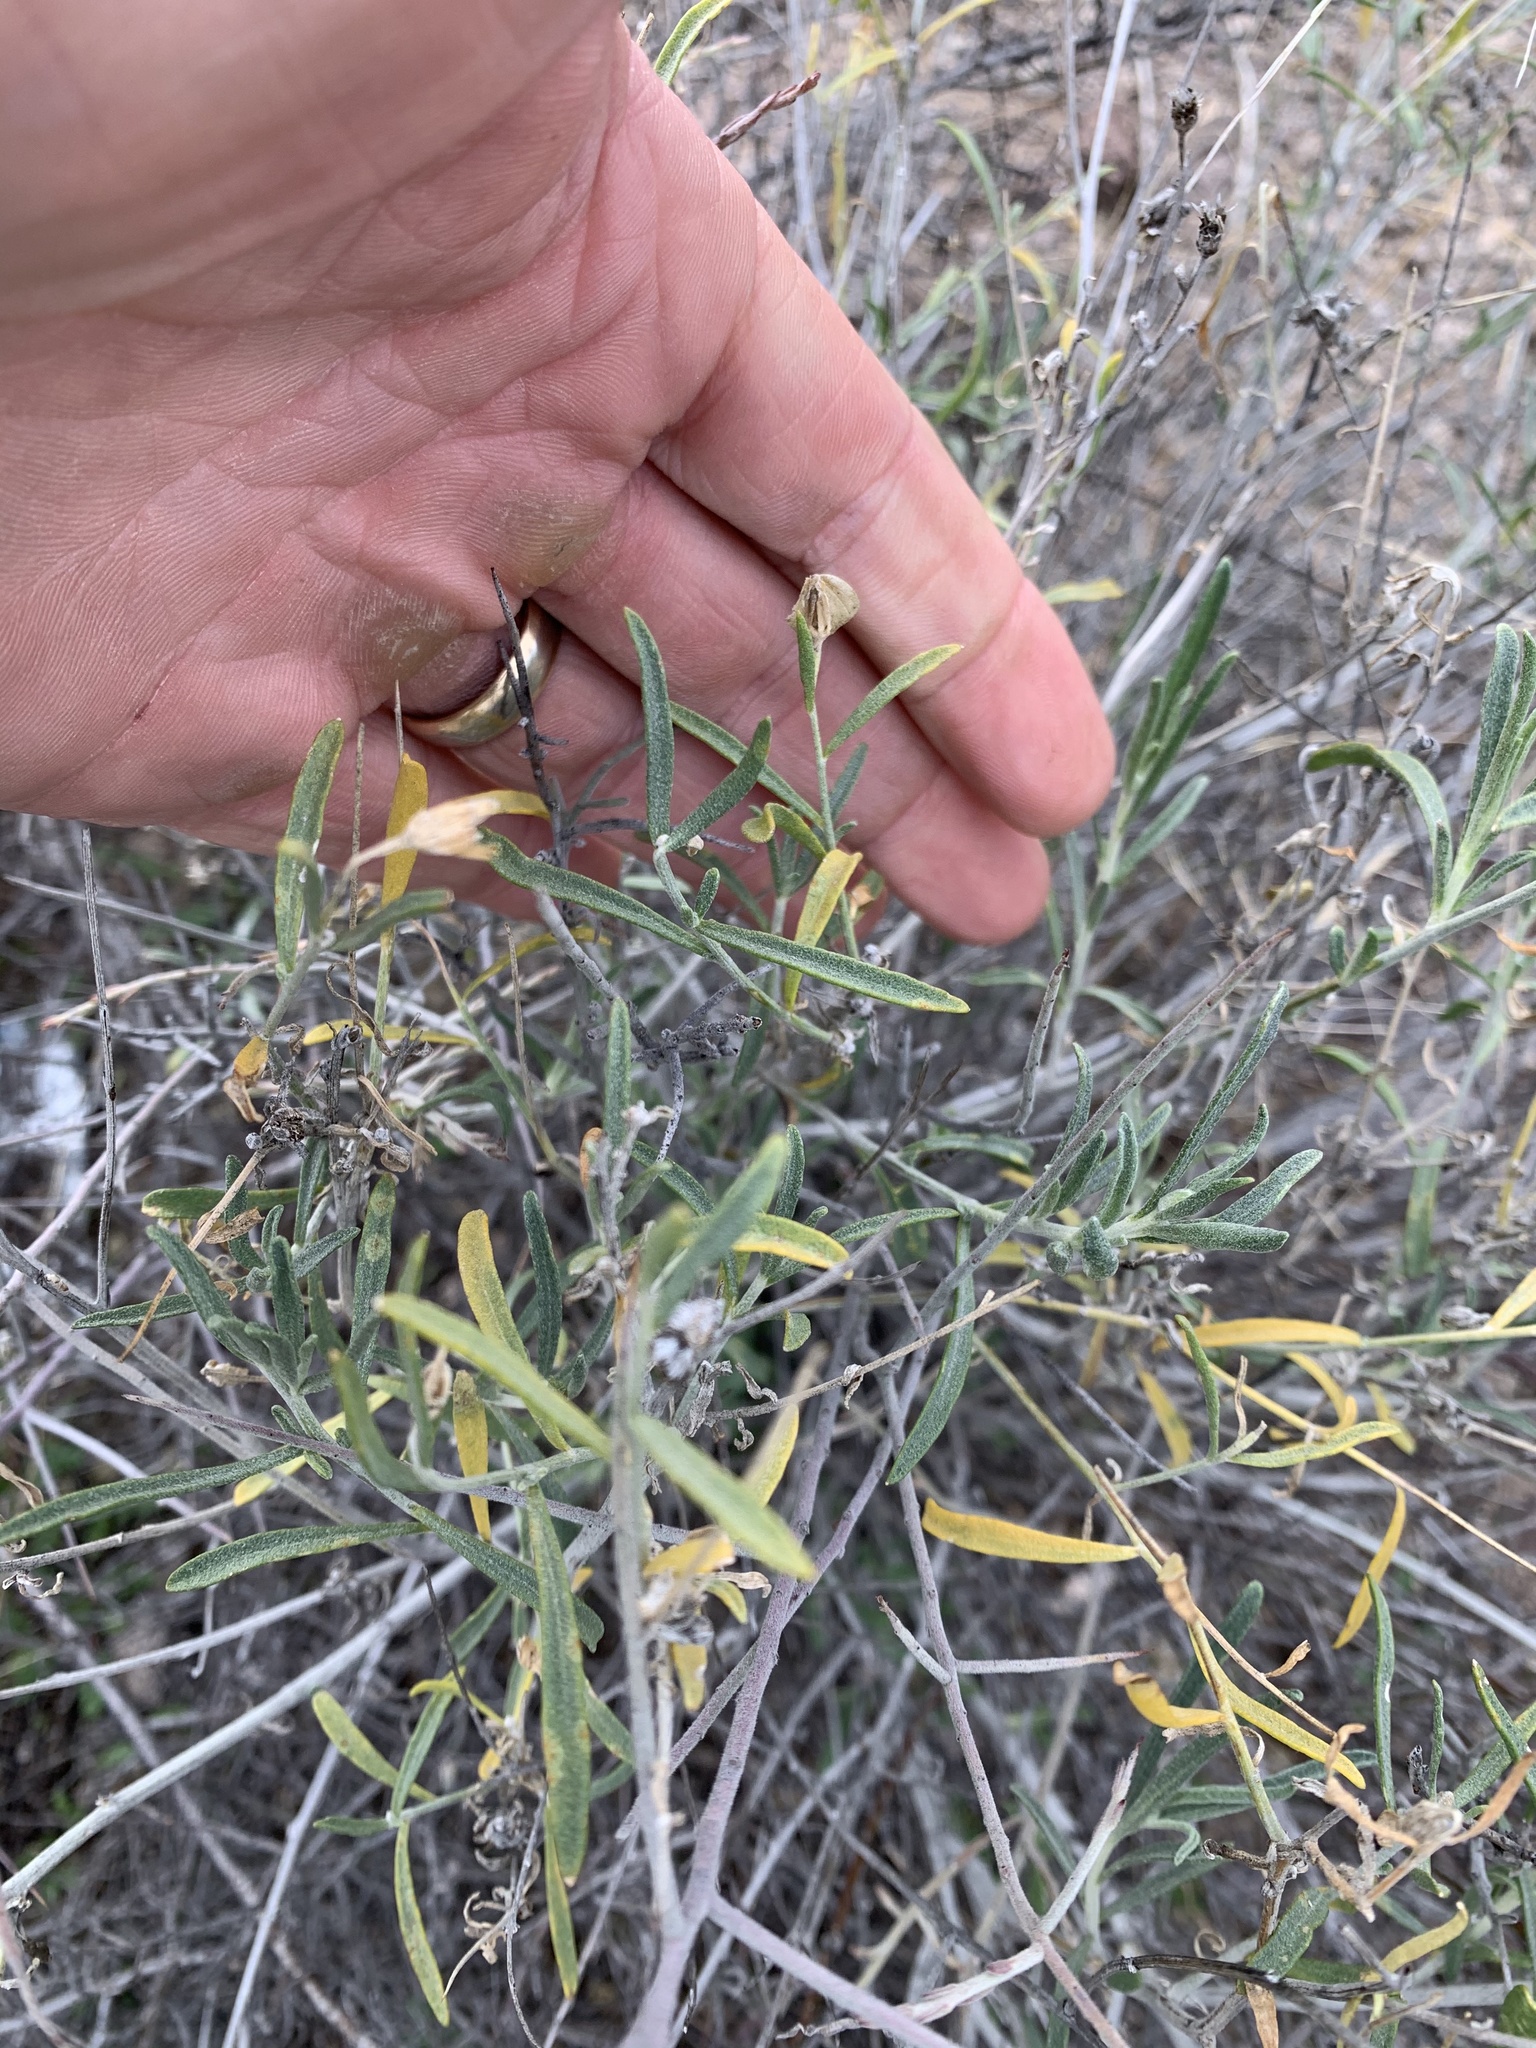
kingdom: Plantae
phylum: Tracheophyta
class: Magnoliopsida
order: Asterales
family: Asteraceae
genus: Psilostrophe
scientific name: Psilostrophe cooperi
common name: White-stem paper-flower
